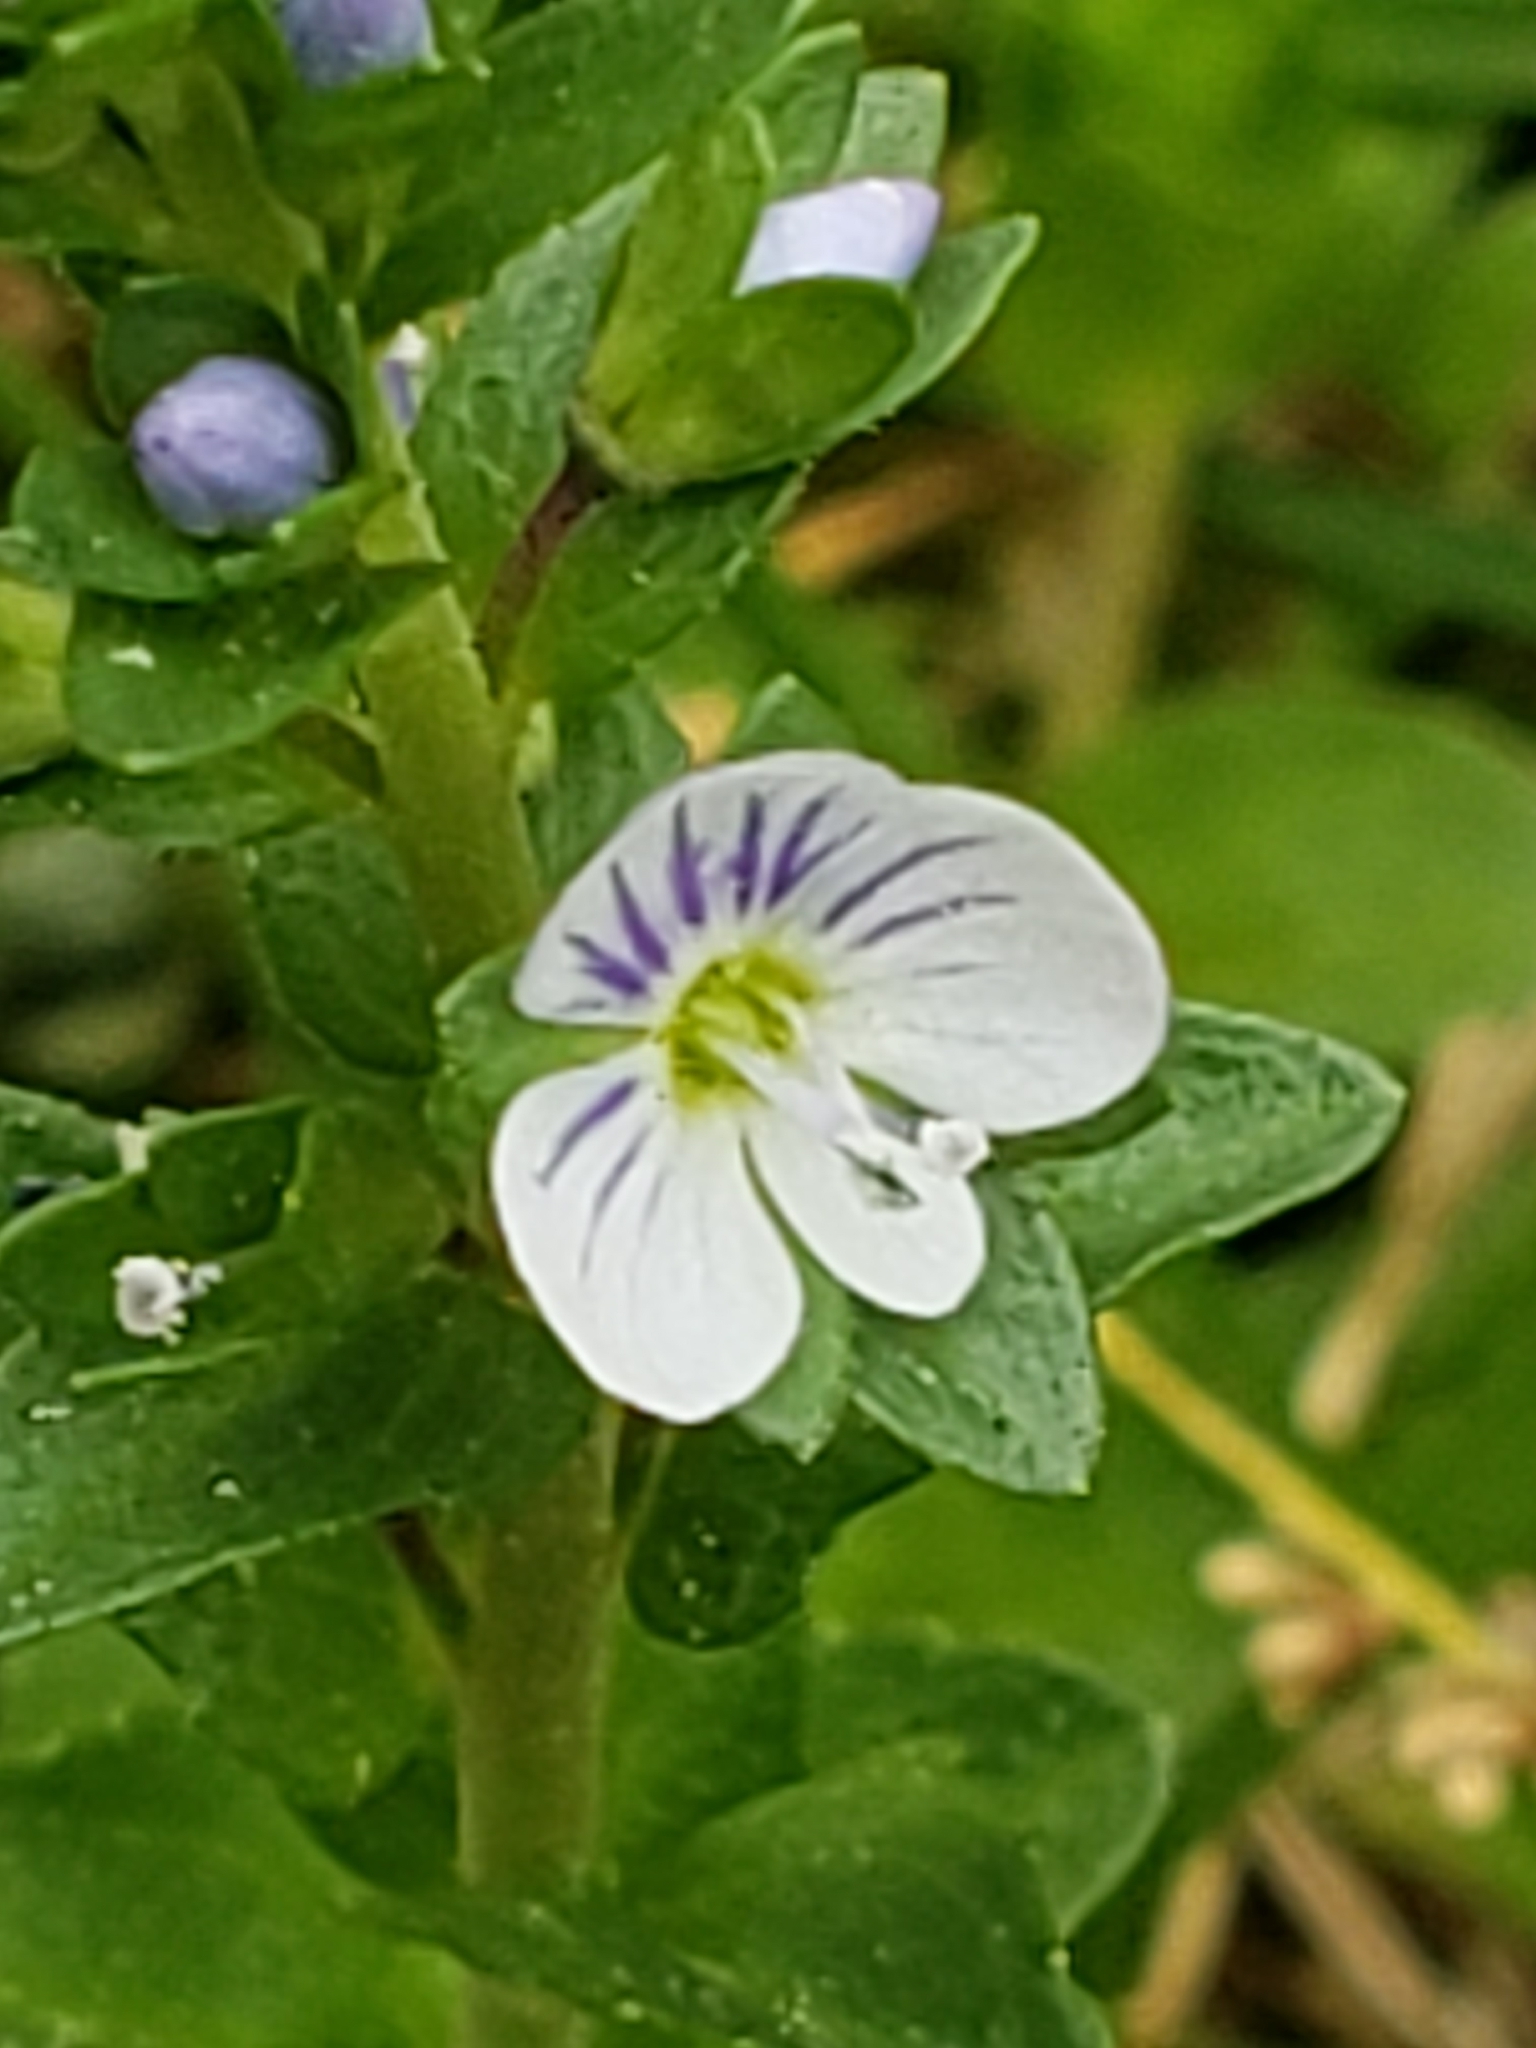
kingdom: Plantae
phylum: Tracheophyta
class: Magnoliopsida
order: Lamiales
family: Plantaginaceae
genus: Veronica
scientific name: Veronica serpyllifolia
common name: Thyme-leaved speedwell
